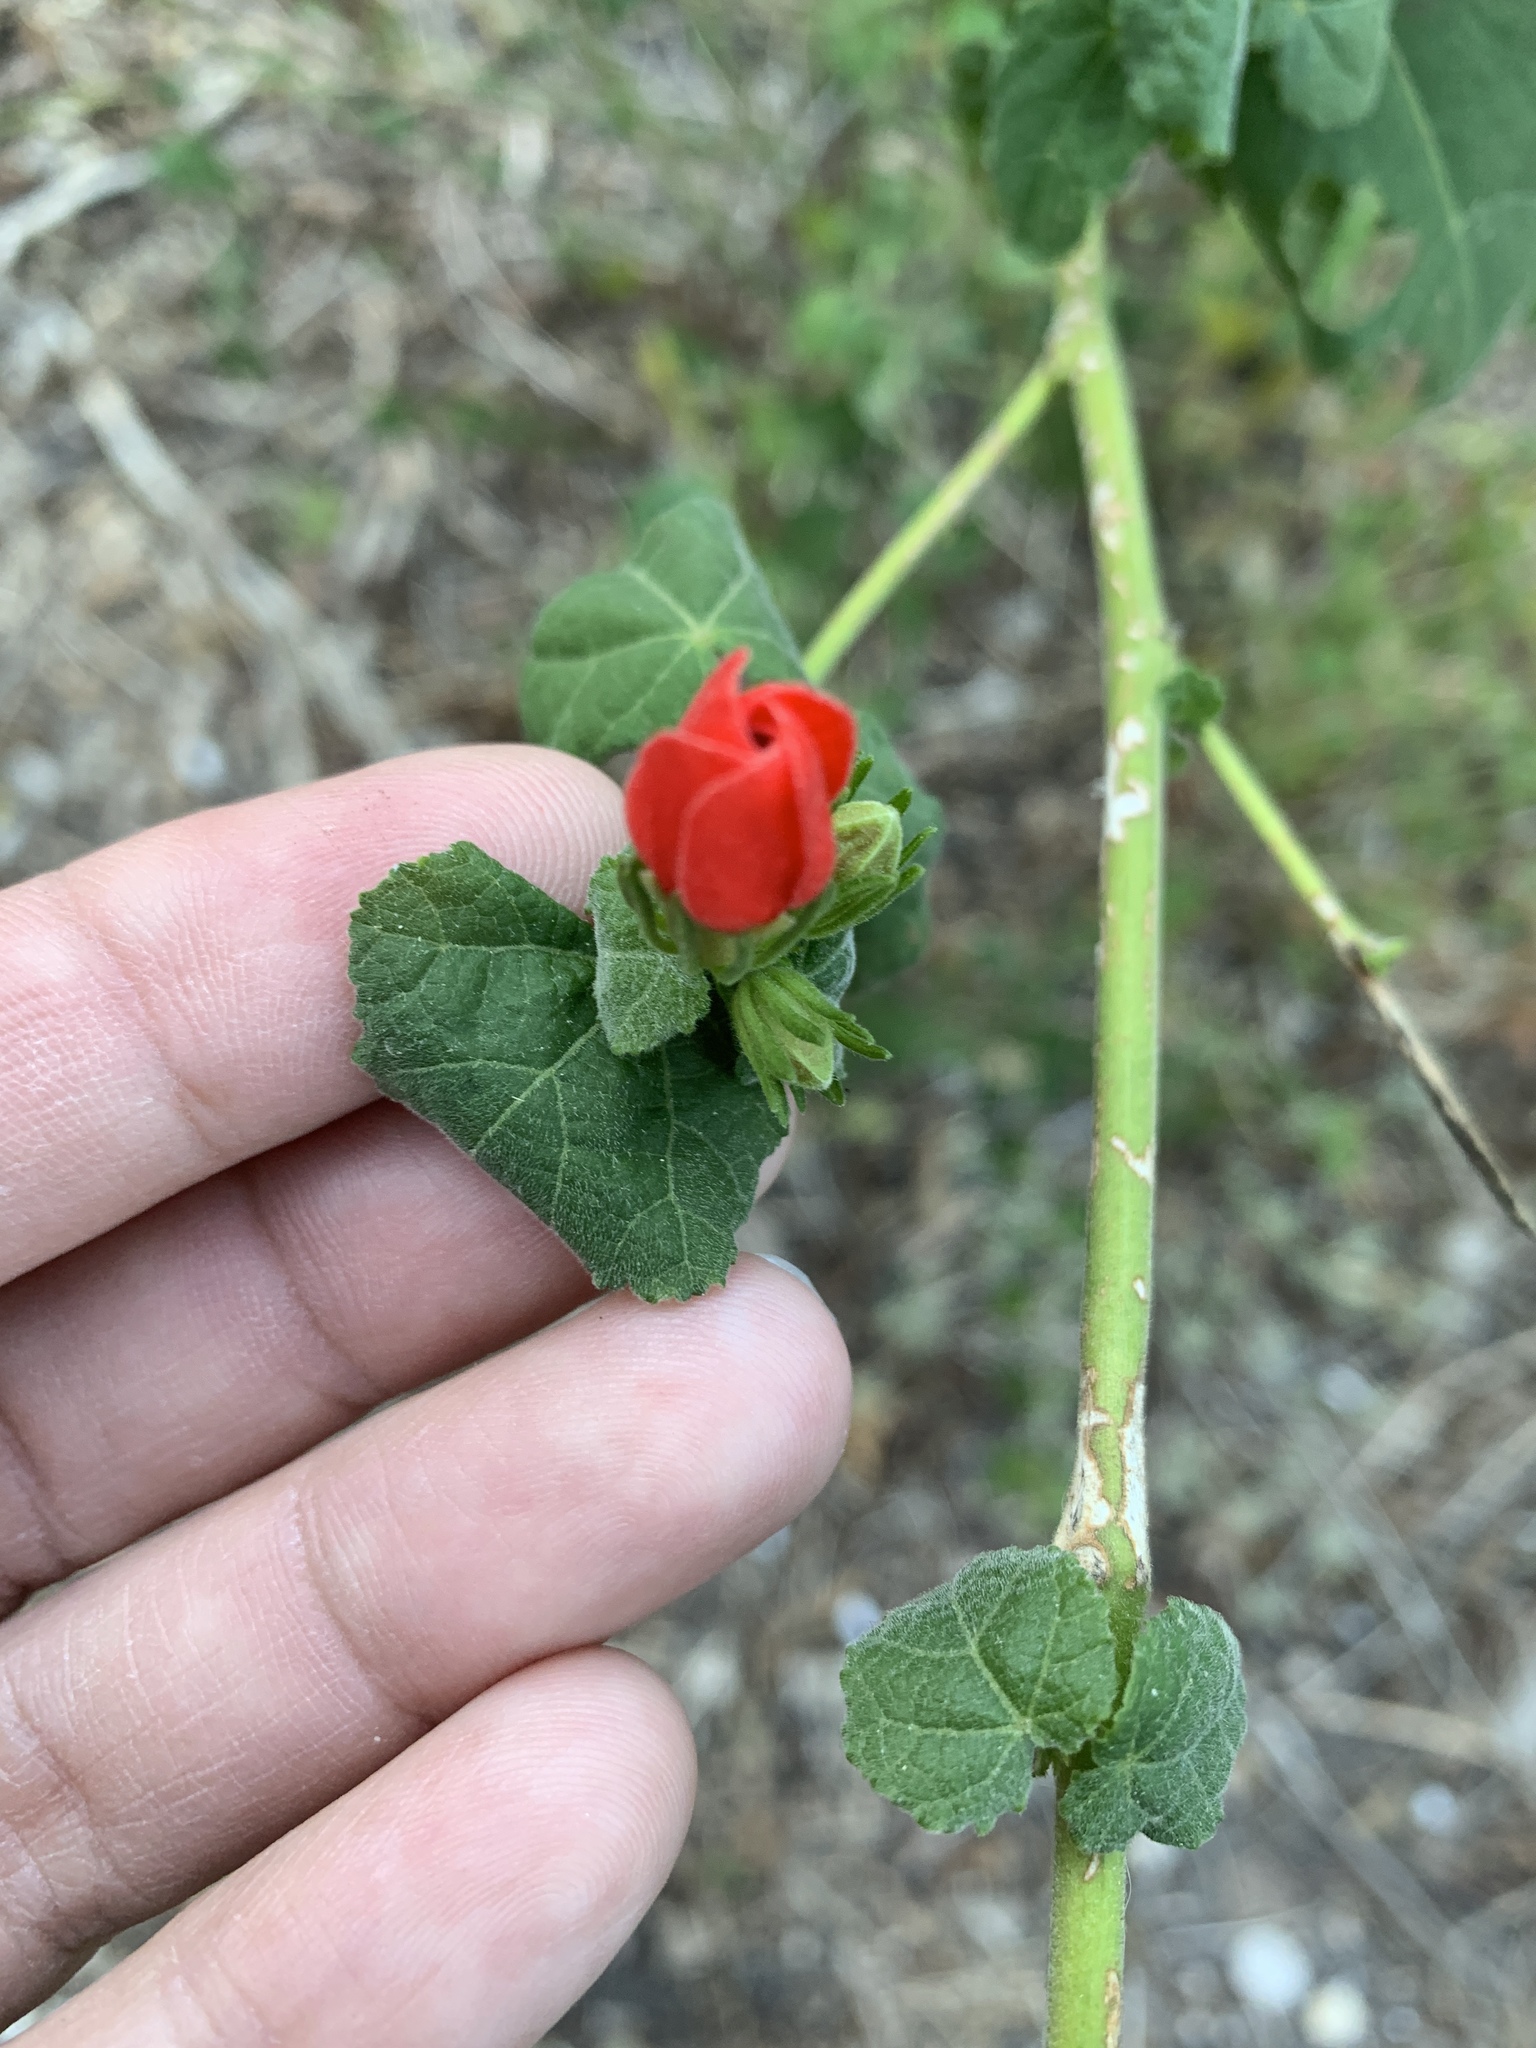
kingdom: Plantae
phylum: Tracheophyta
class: Magnoliopsida
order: Malvales
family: Malvaceae
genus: Malvaviscus
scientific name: Malvaviscus arboreus
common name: Wax mallow
